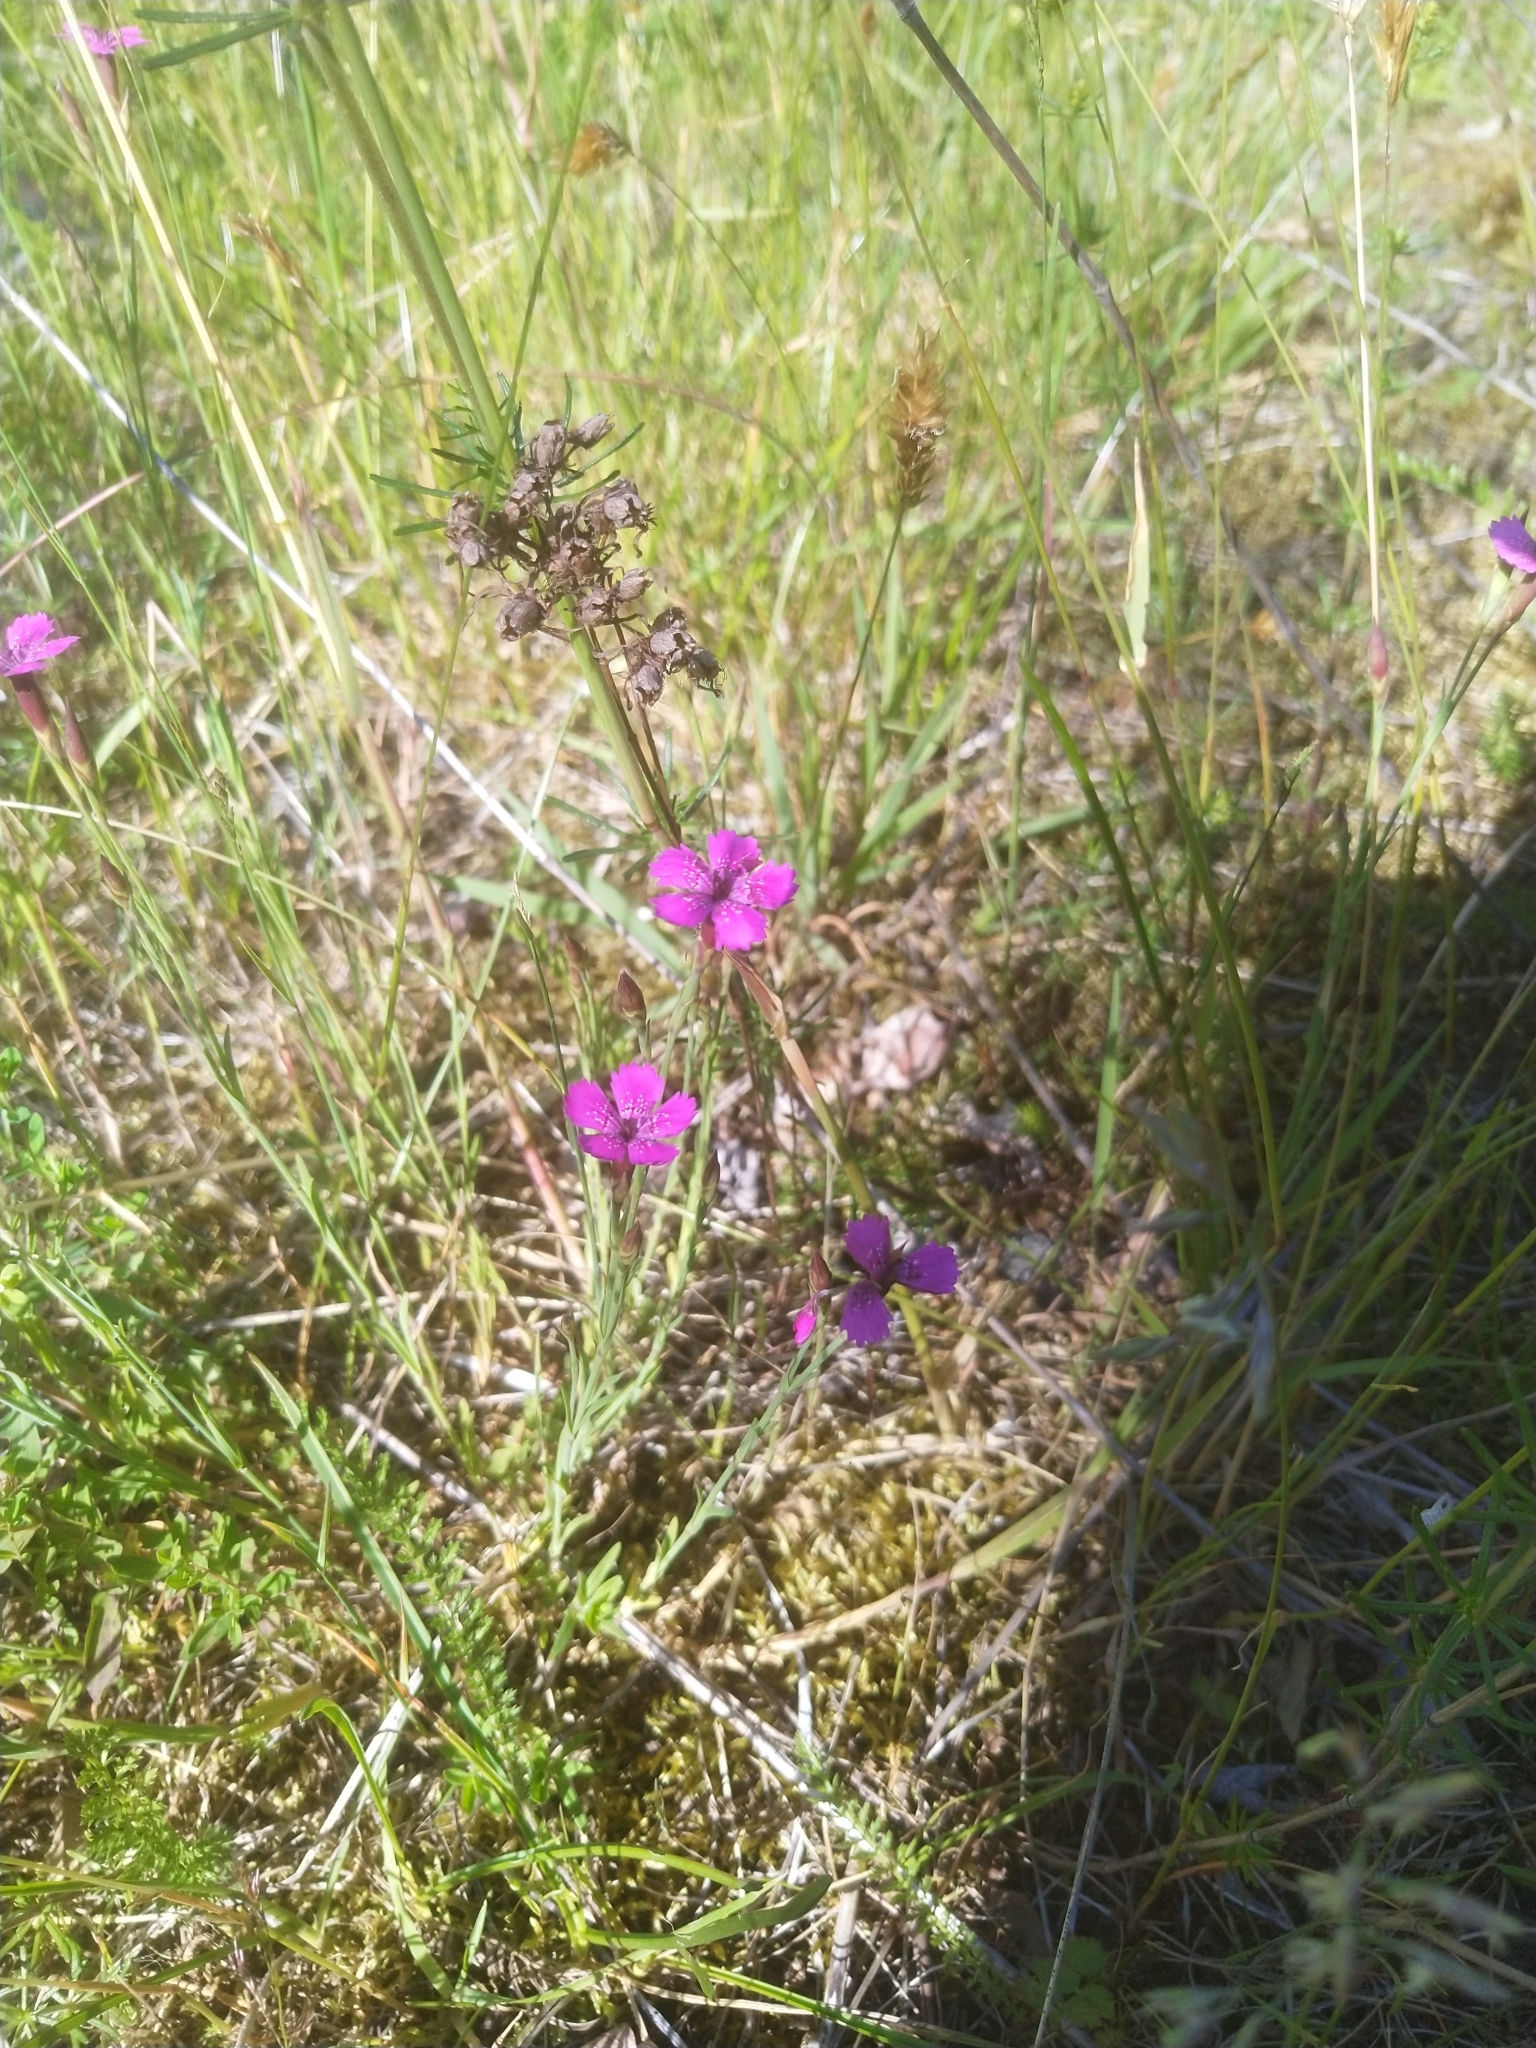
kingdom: Plantae
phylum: Tracheophyta
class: Magnoliopsida
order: Caryophyllales
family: Caryophyllaceae
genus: Dianthus
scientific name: Dianthus deltoides
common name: Maiden pink
